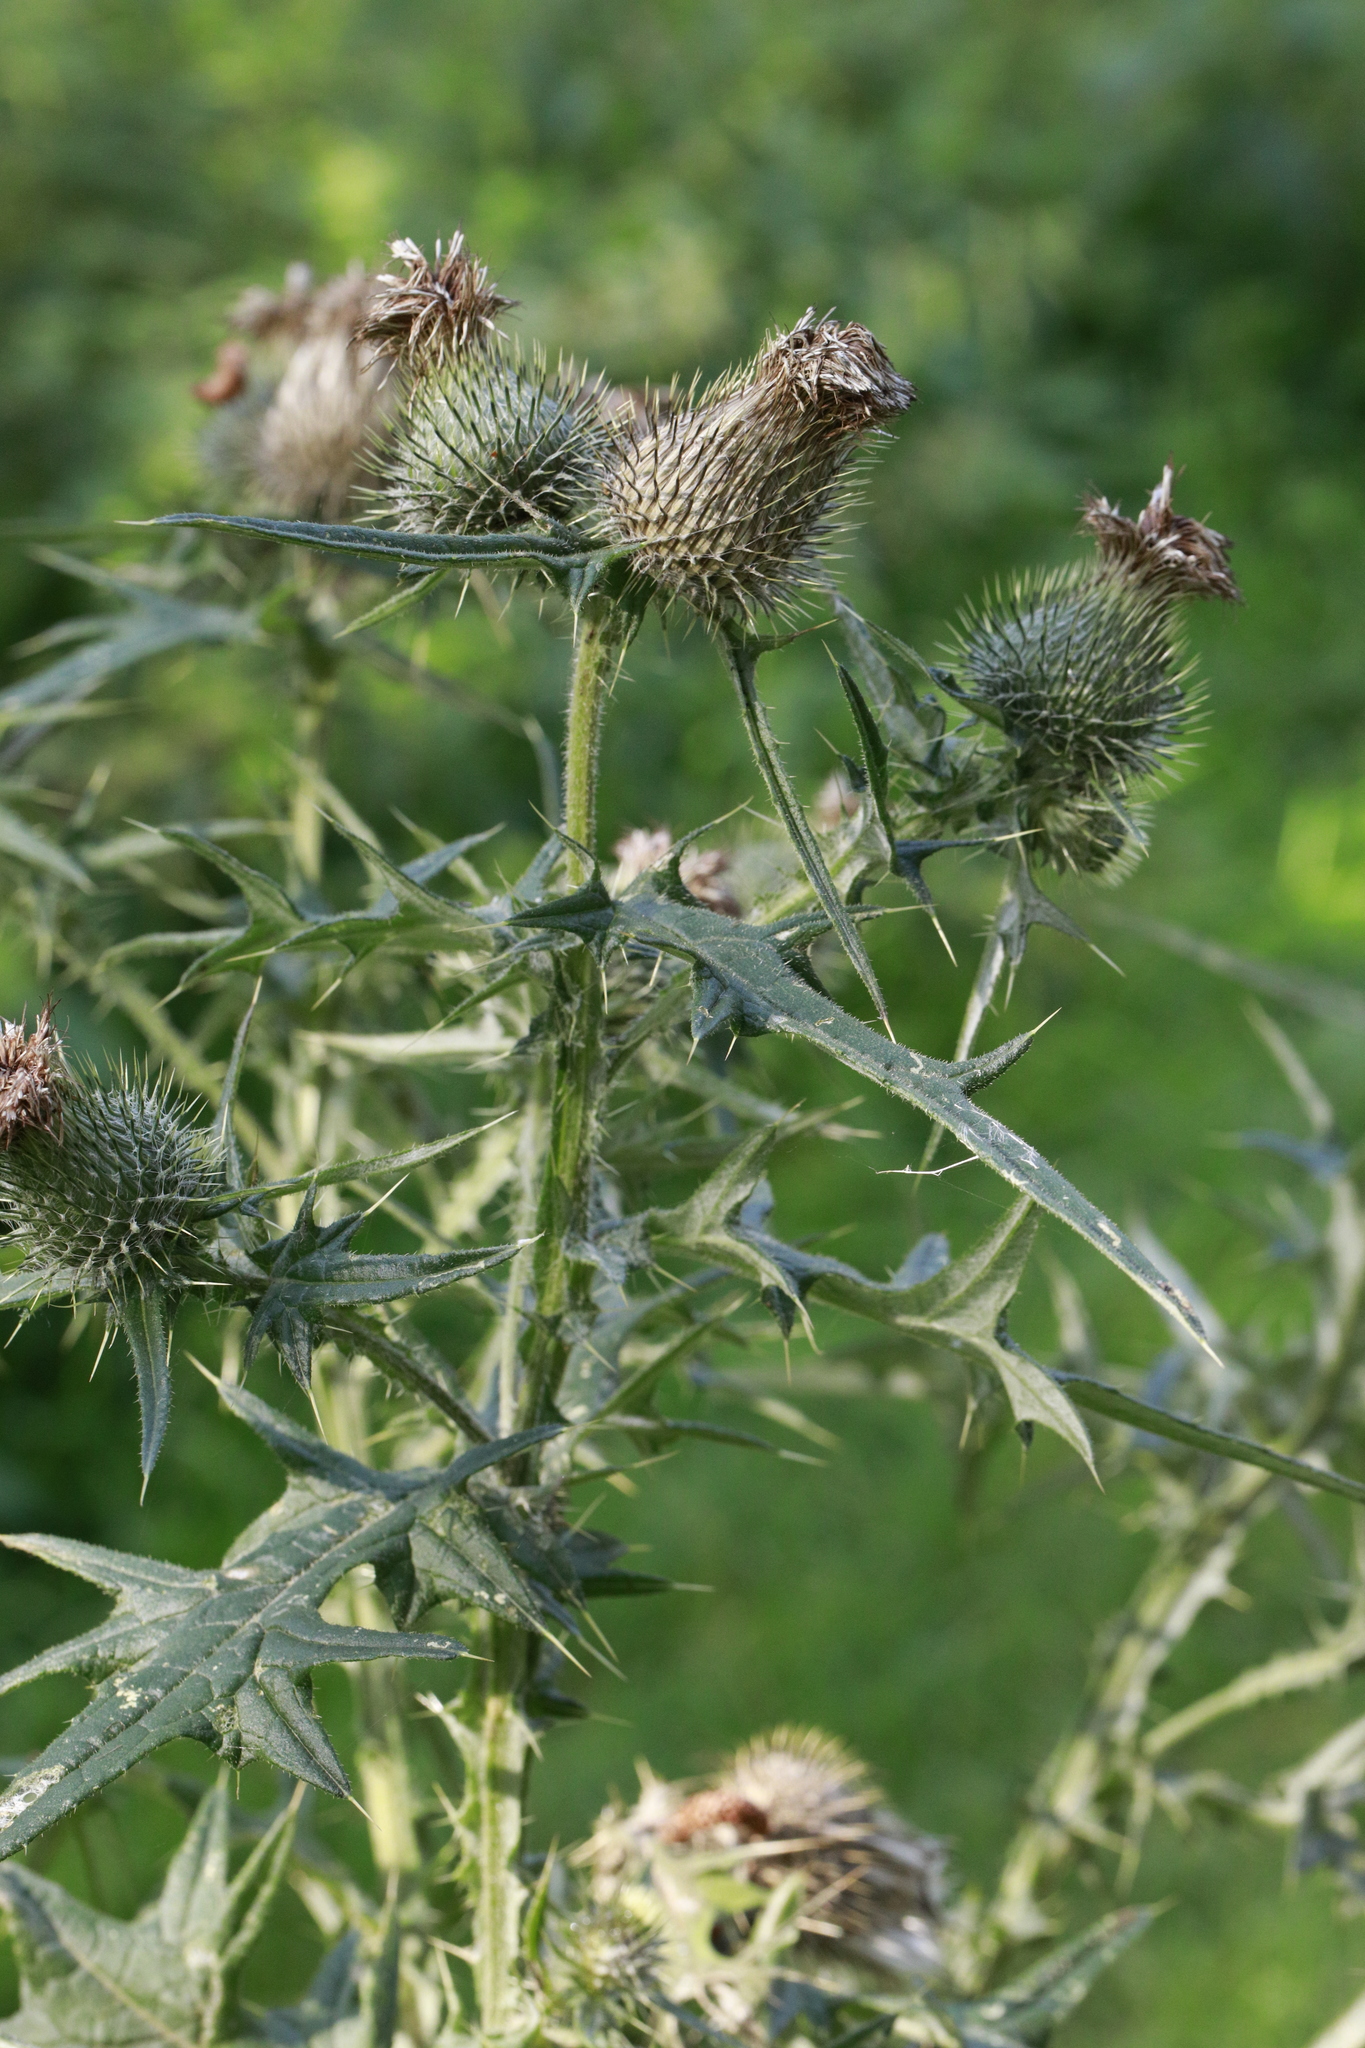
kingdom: Plantae
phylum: Tracheophyta
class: Magnoliopsida
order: Asterales
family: Asteraceae
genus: Cirsium
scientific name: Cirsium vulgare
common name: Bull thistle
